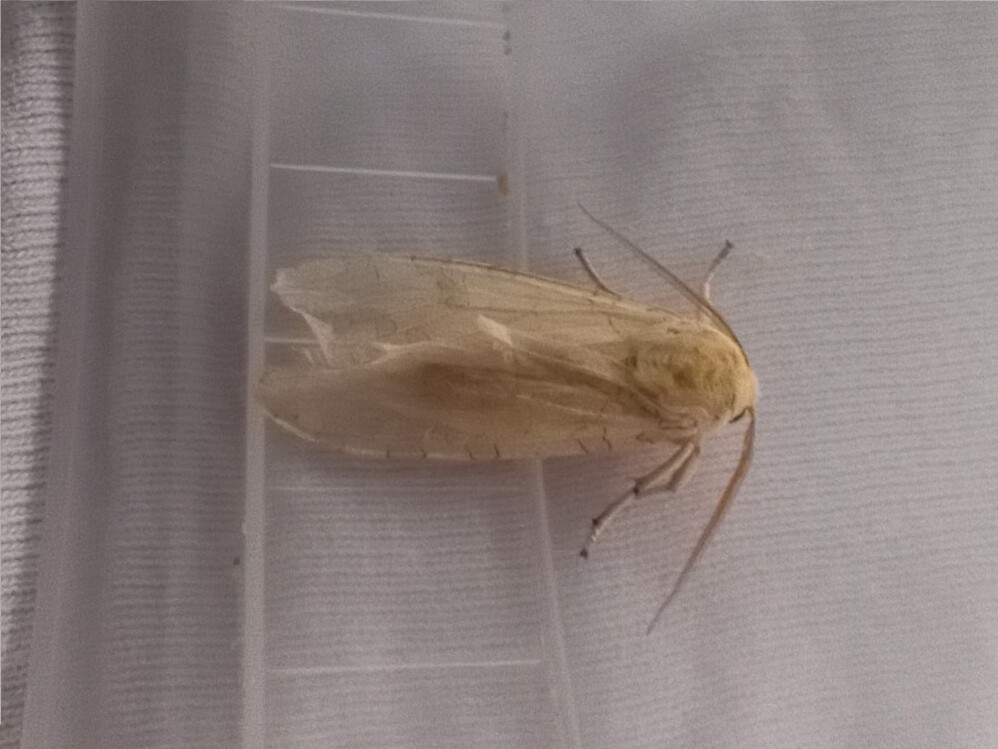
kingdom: Animalia
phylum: Arthropoda
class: Insecta
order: Lepidoptera
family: Erebidae
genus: Halysidota
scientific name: Halysidota
